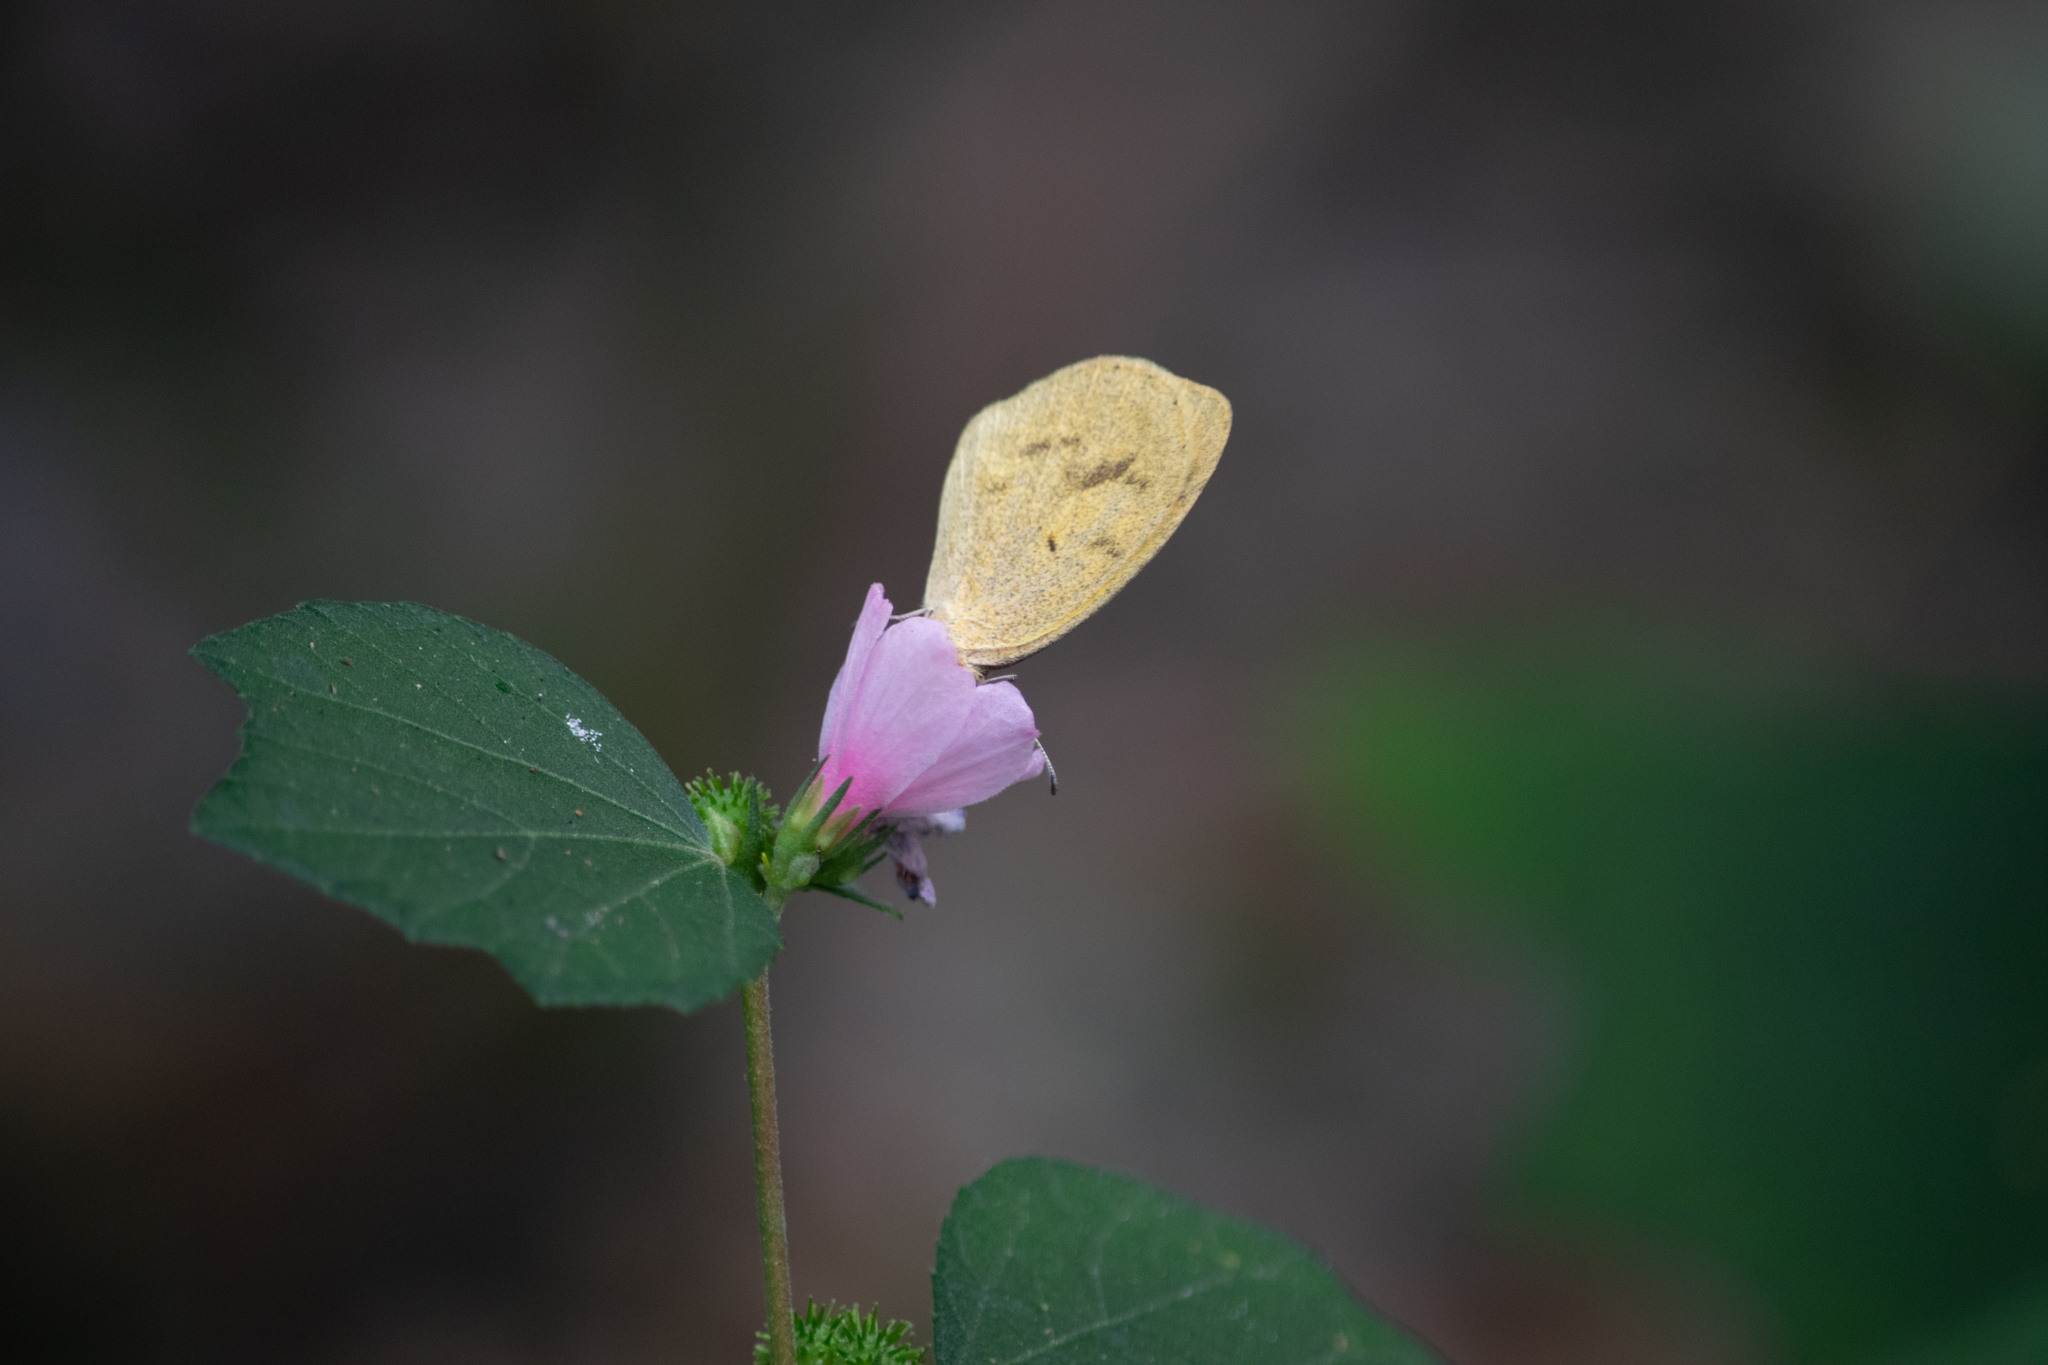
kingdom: Animalia
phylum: Arthropoda
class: Insecta
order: Lepidoptera
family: Pieridae
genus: Eurema
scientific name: Eurema daira
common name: Barred sulphur
